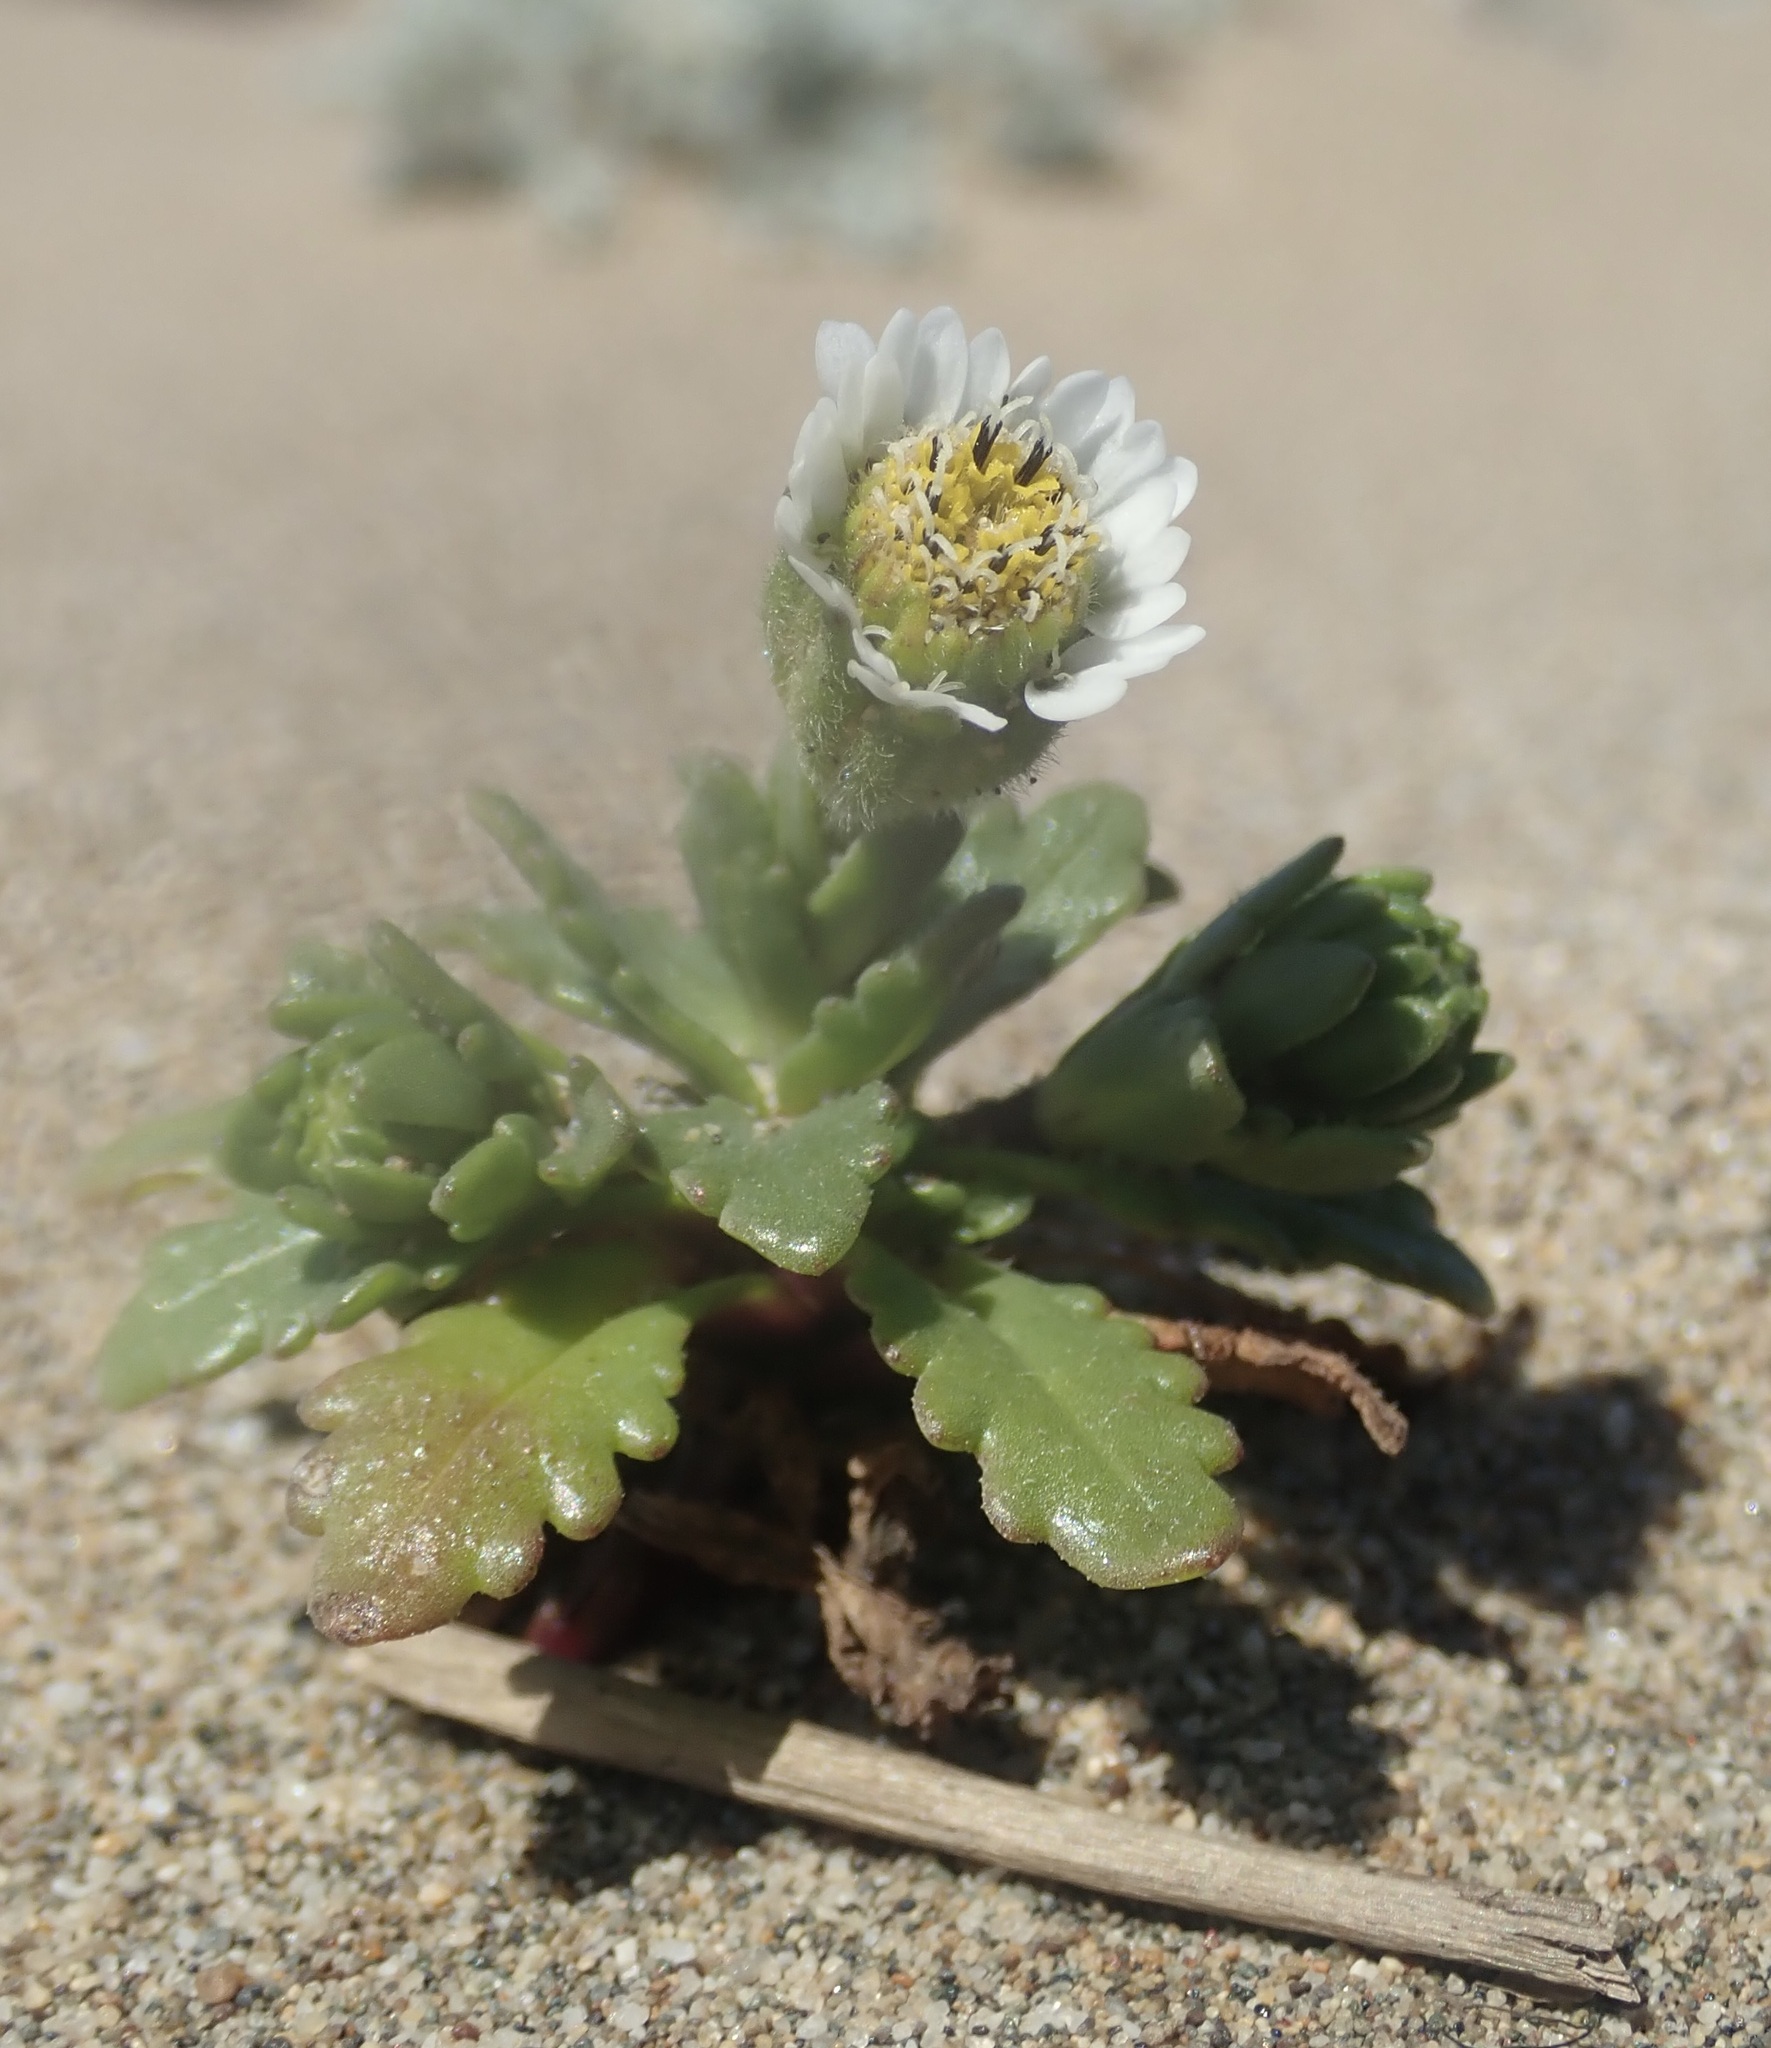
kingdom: Plantae
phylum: Tracheophyta
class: Magnoliopsida
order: Asterales
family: Asteraceae
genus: Layia
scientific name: Layia carnosa
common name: Beach layia
